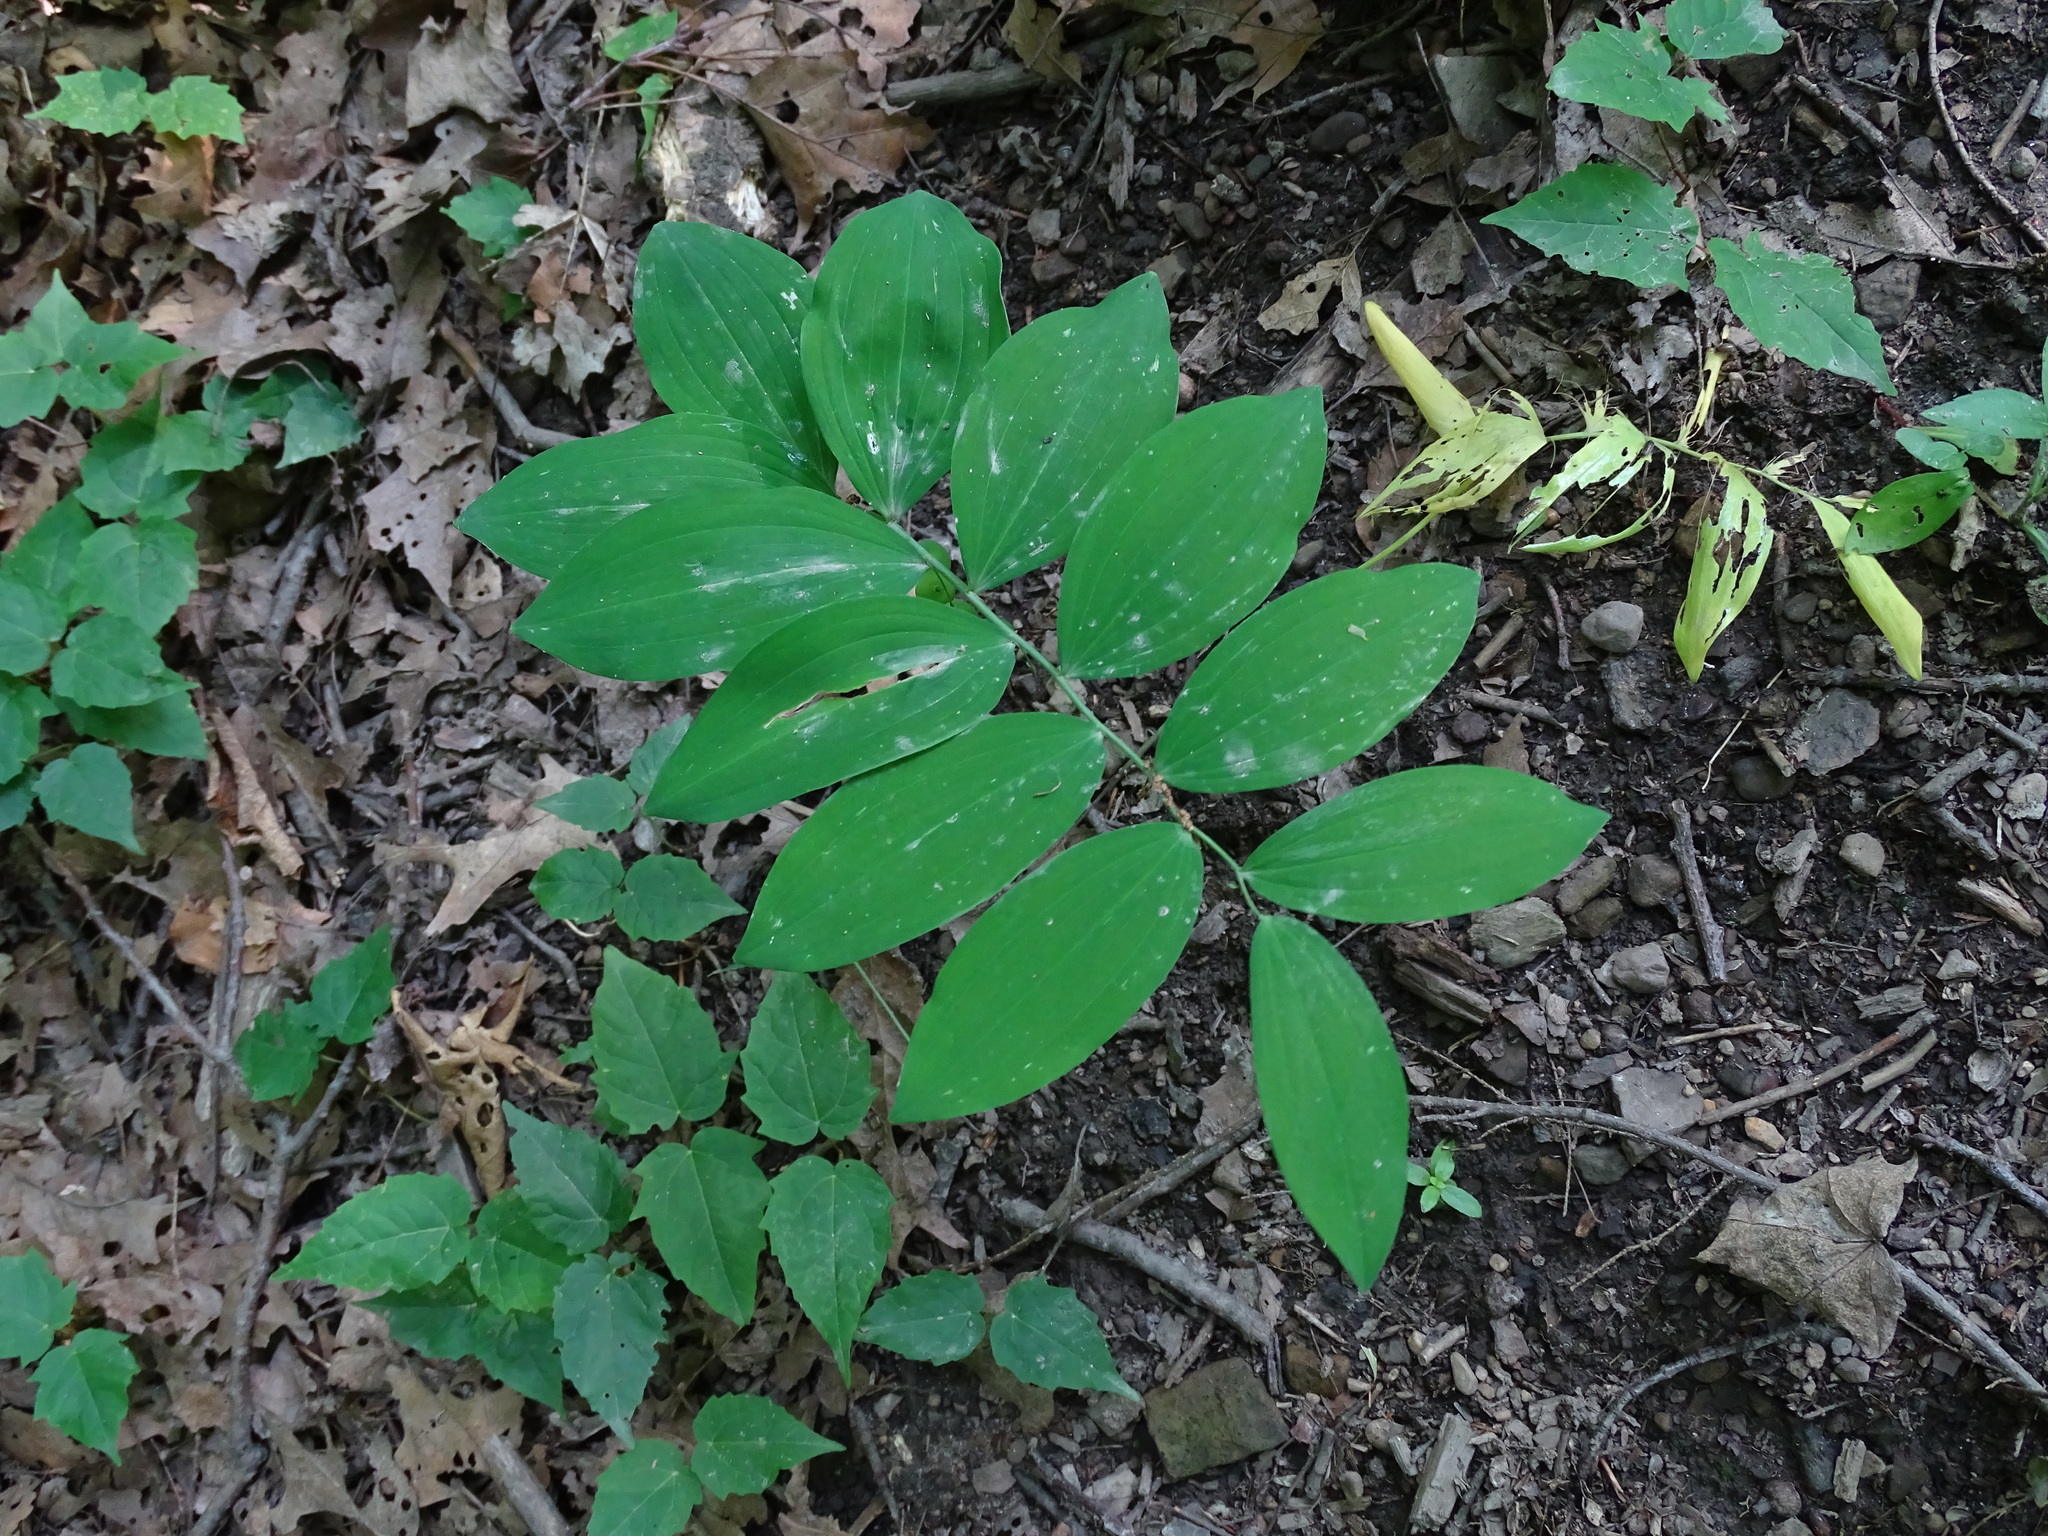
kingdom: Plantae
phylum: Tracheophyta
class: Liliopsida
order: Asparagales
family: Asparagaceae
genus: Polygonatum
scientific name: Polygonatum pubescens
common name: Downy solomon's seal
